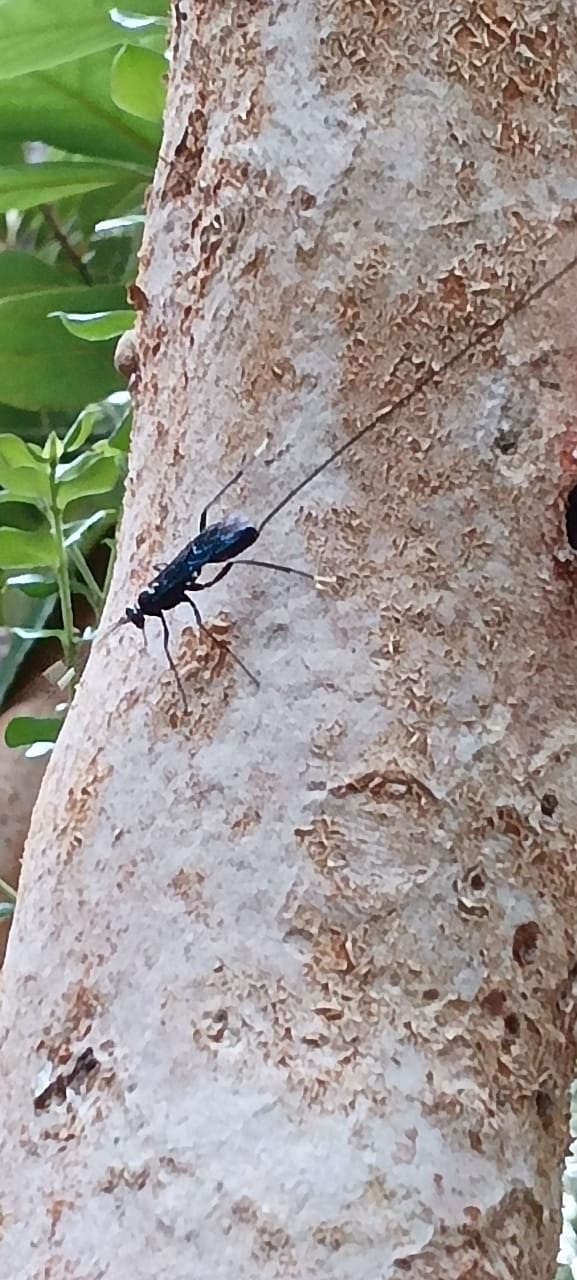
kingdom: Animalia
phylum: Arthropoda
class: Insecta
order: Hymenoptera
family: Ichneumonidae
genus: Dotocryptus
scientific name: Dotocryptus bellicosus
